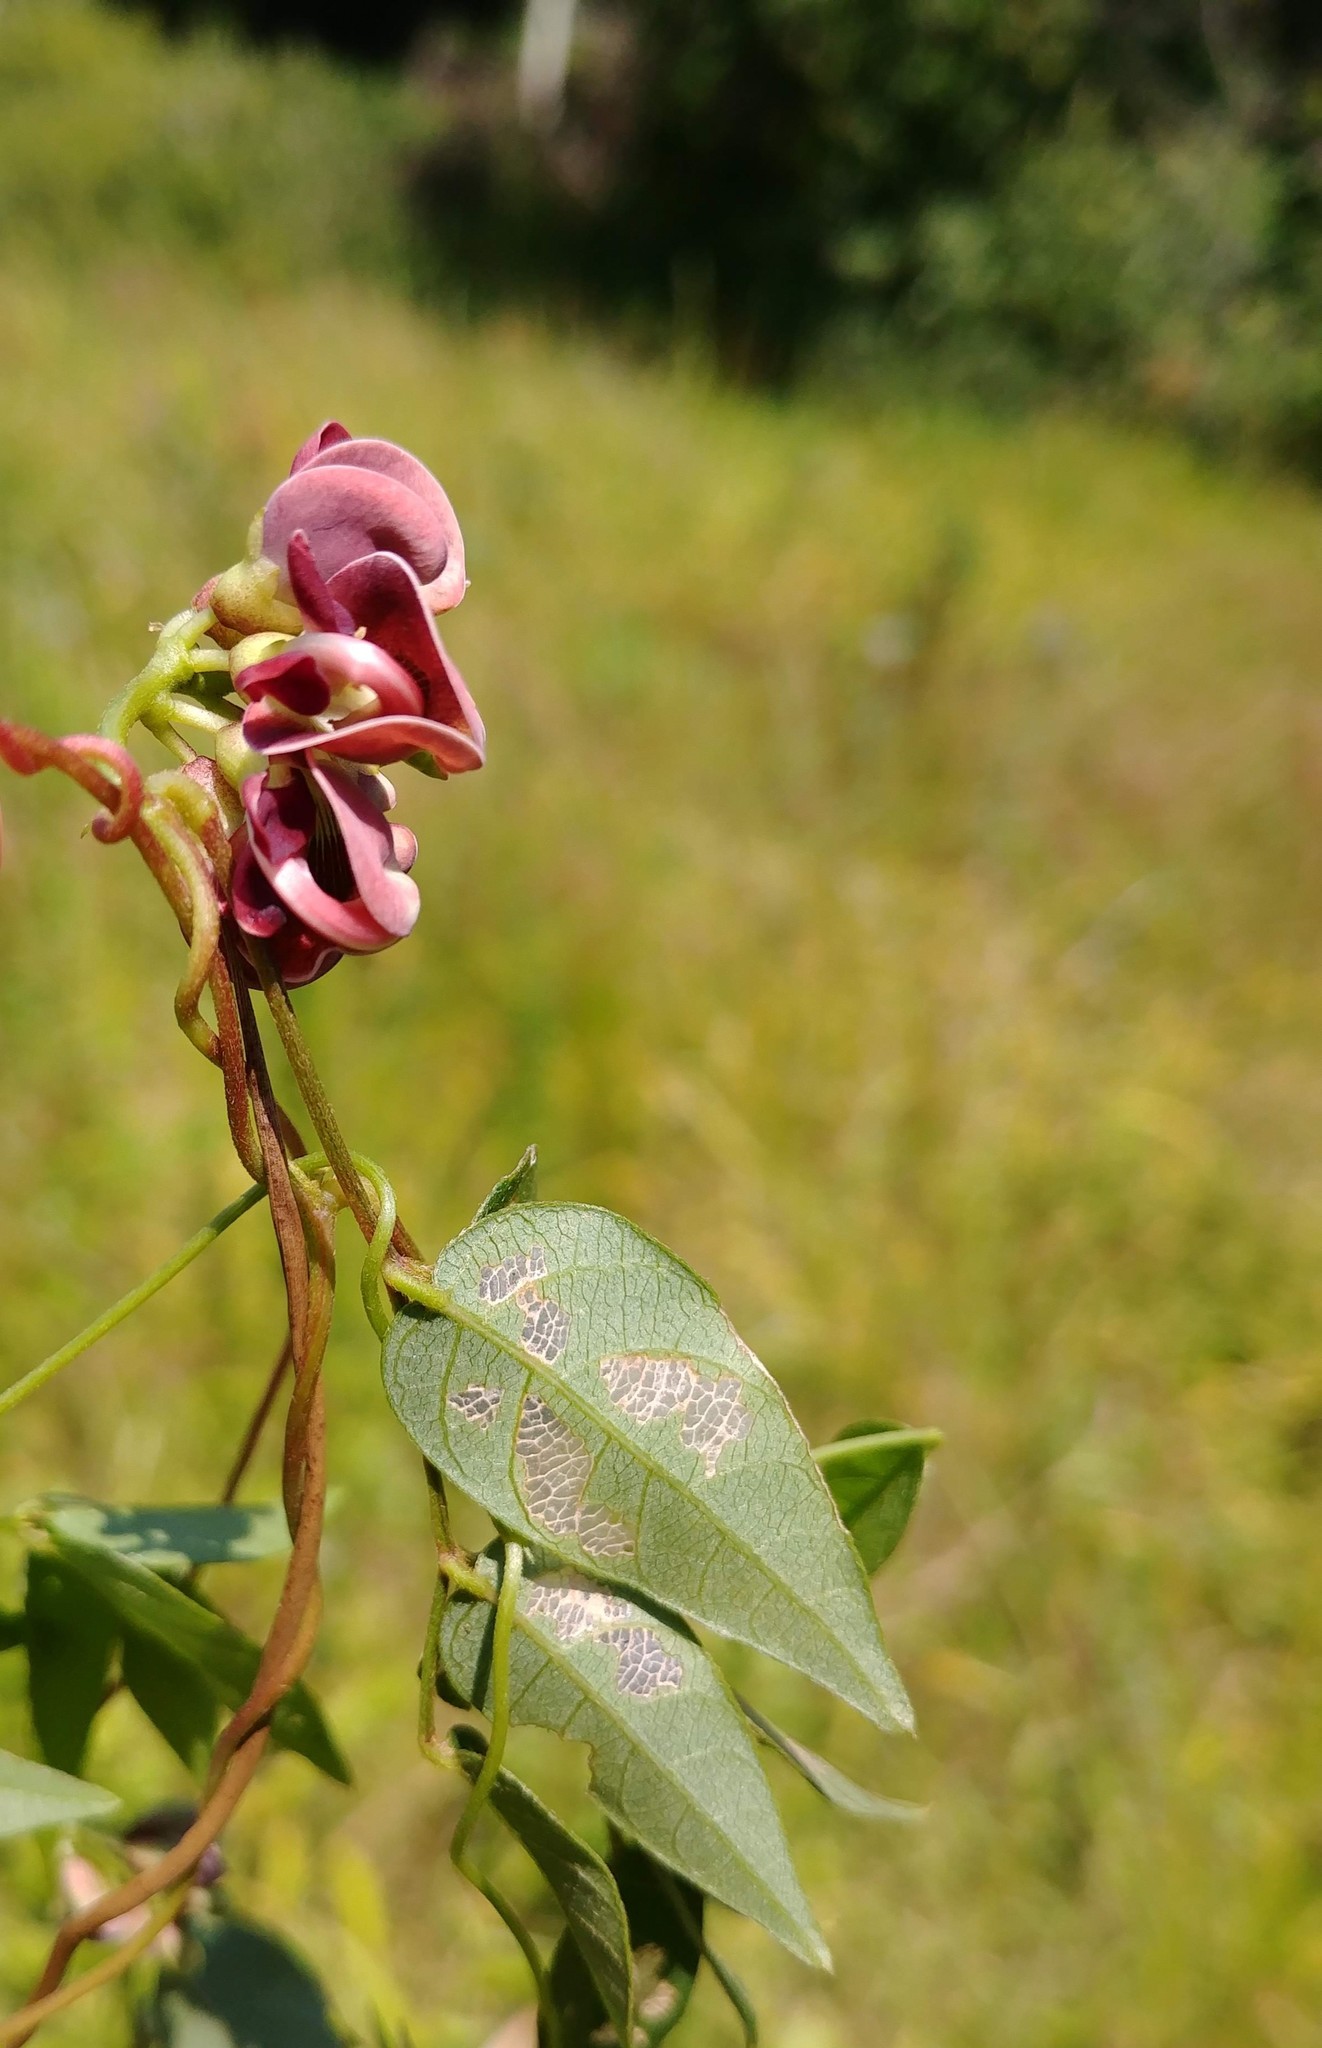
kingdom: Plantae
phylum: Tracheophyta
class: Magnoliopsida
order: Fabales
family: Fabaceae
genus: Apios
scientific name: Apios americana
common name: American potato-bean
